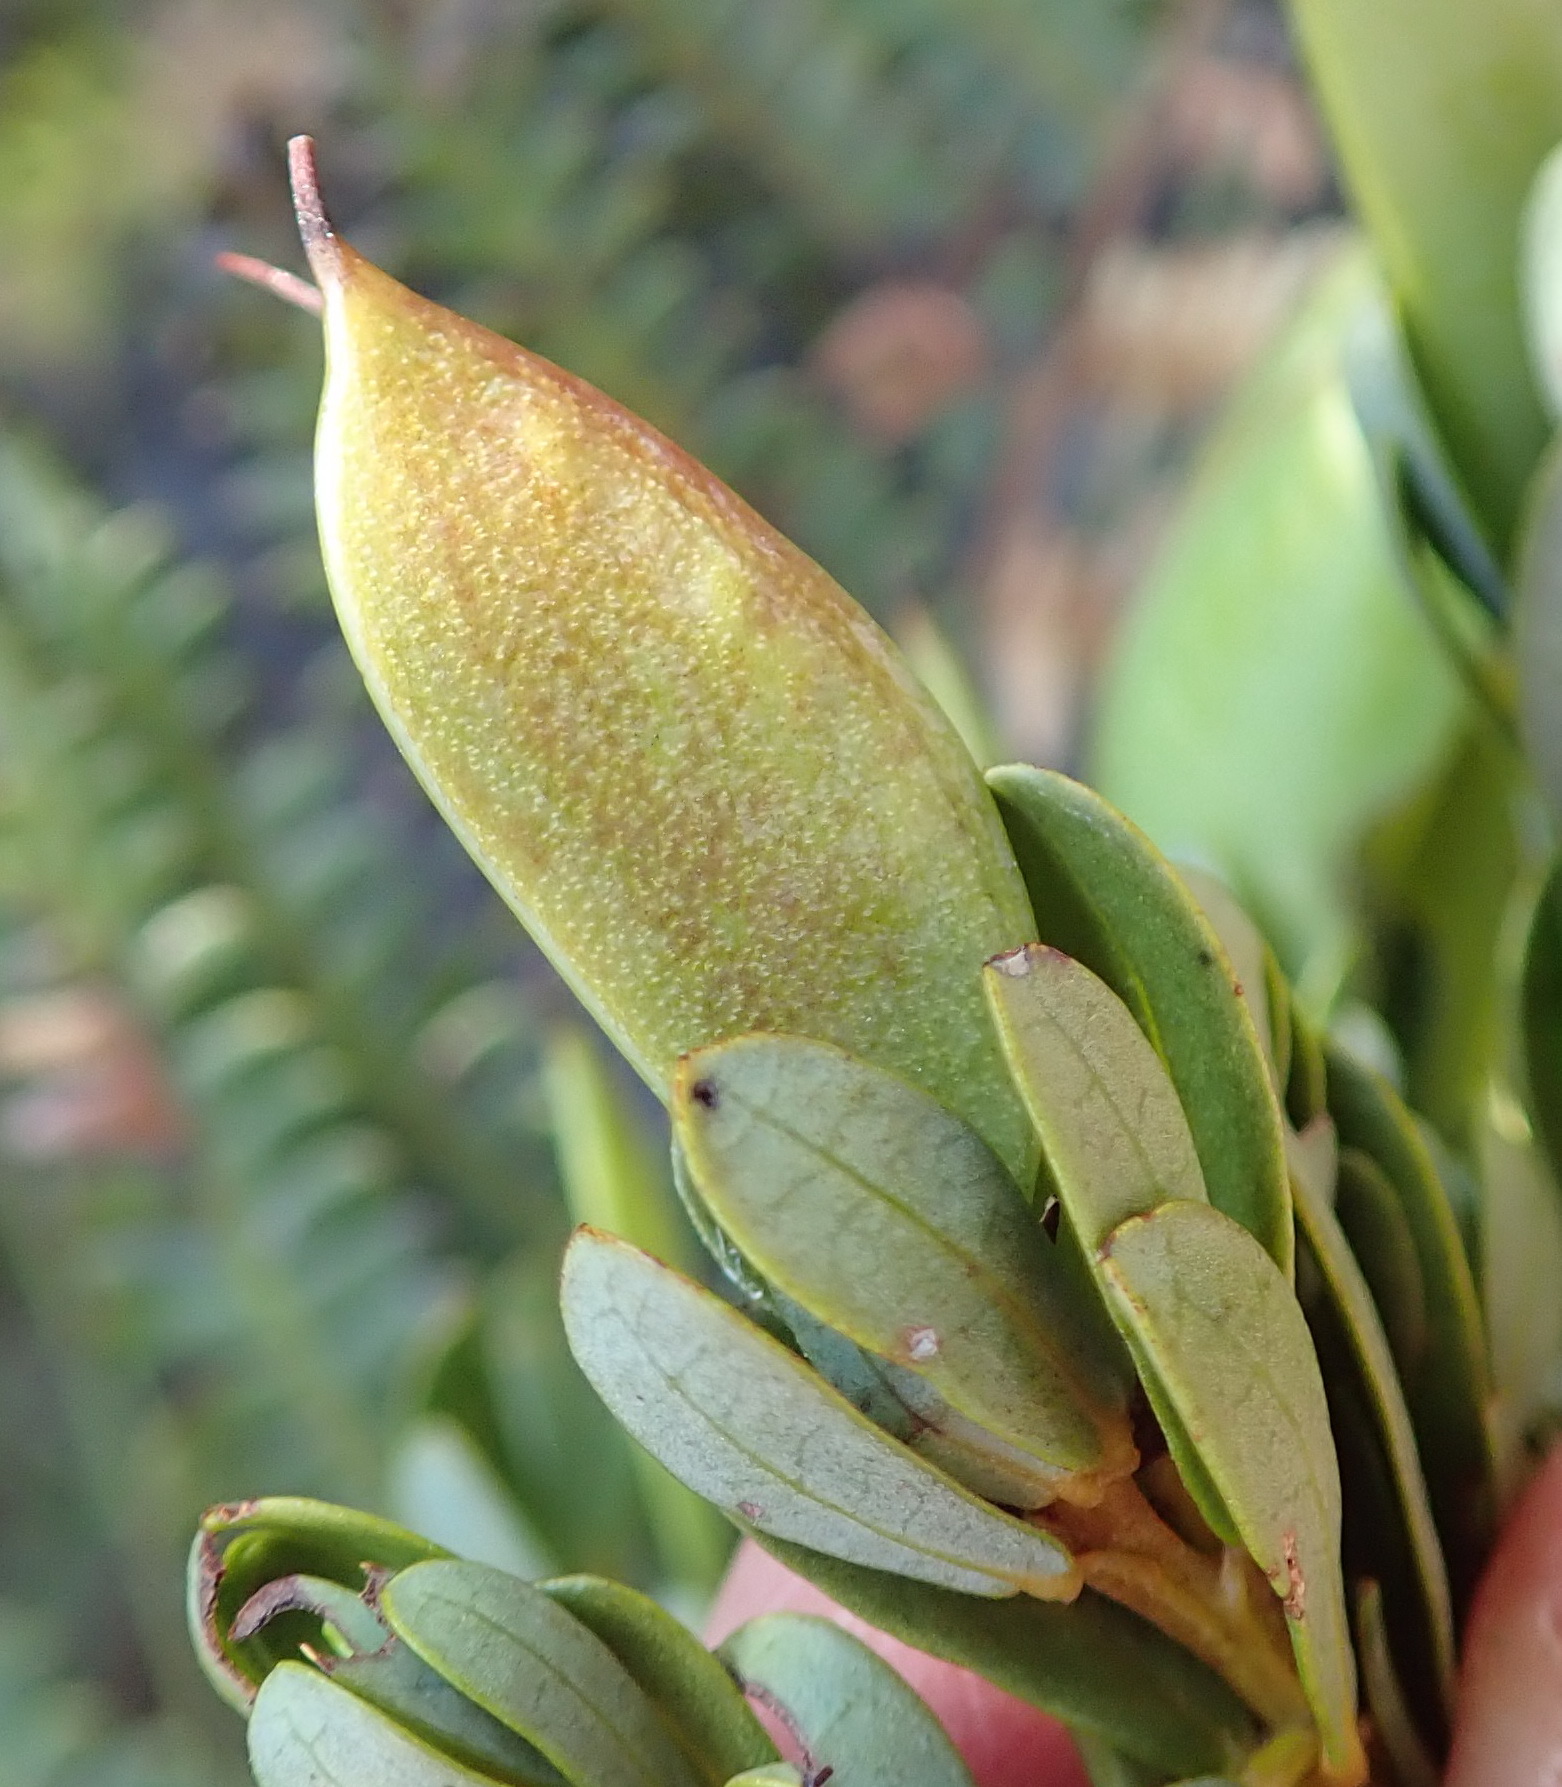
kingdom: Plantae
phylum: Tracheophyta
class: Magnoliopsida
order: Fabales
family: Fabaceae
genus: Cyclopia
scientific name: Cyclopia sessiliflora
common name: Heidelberg tea
